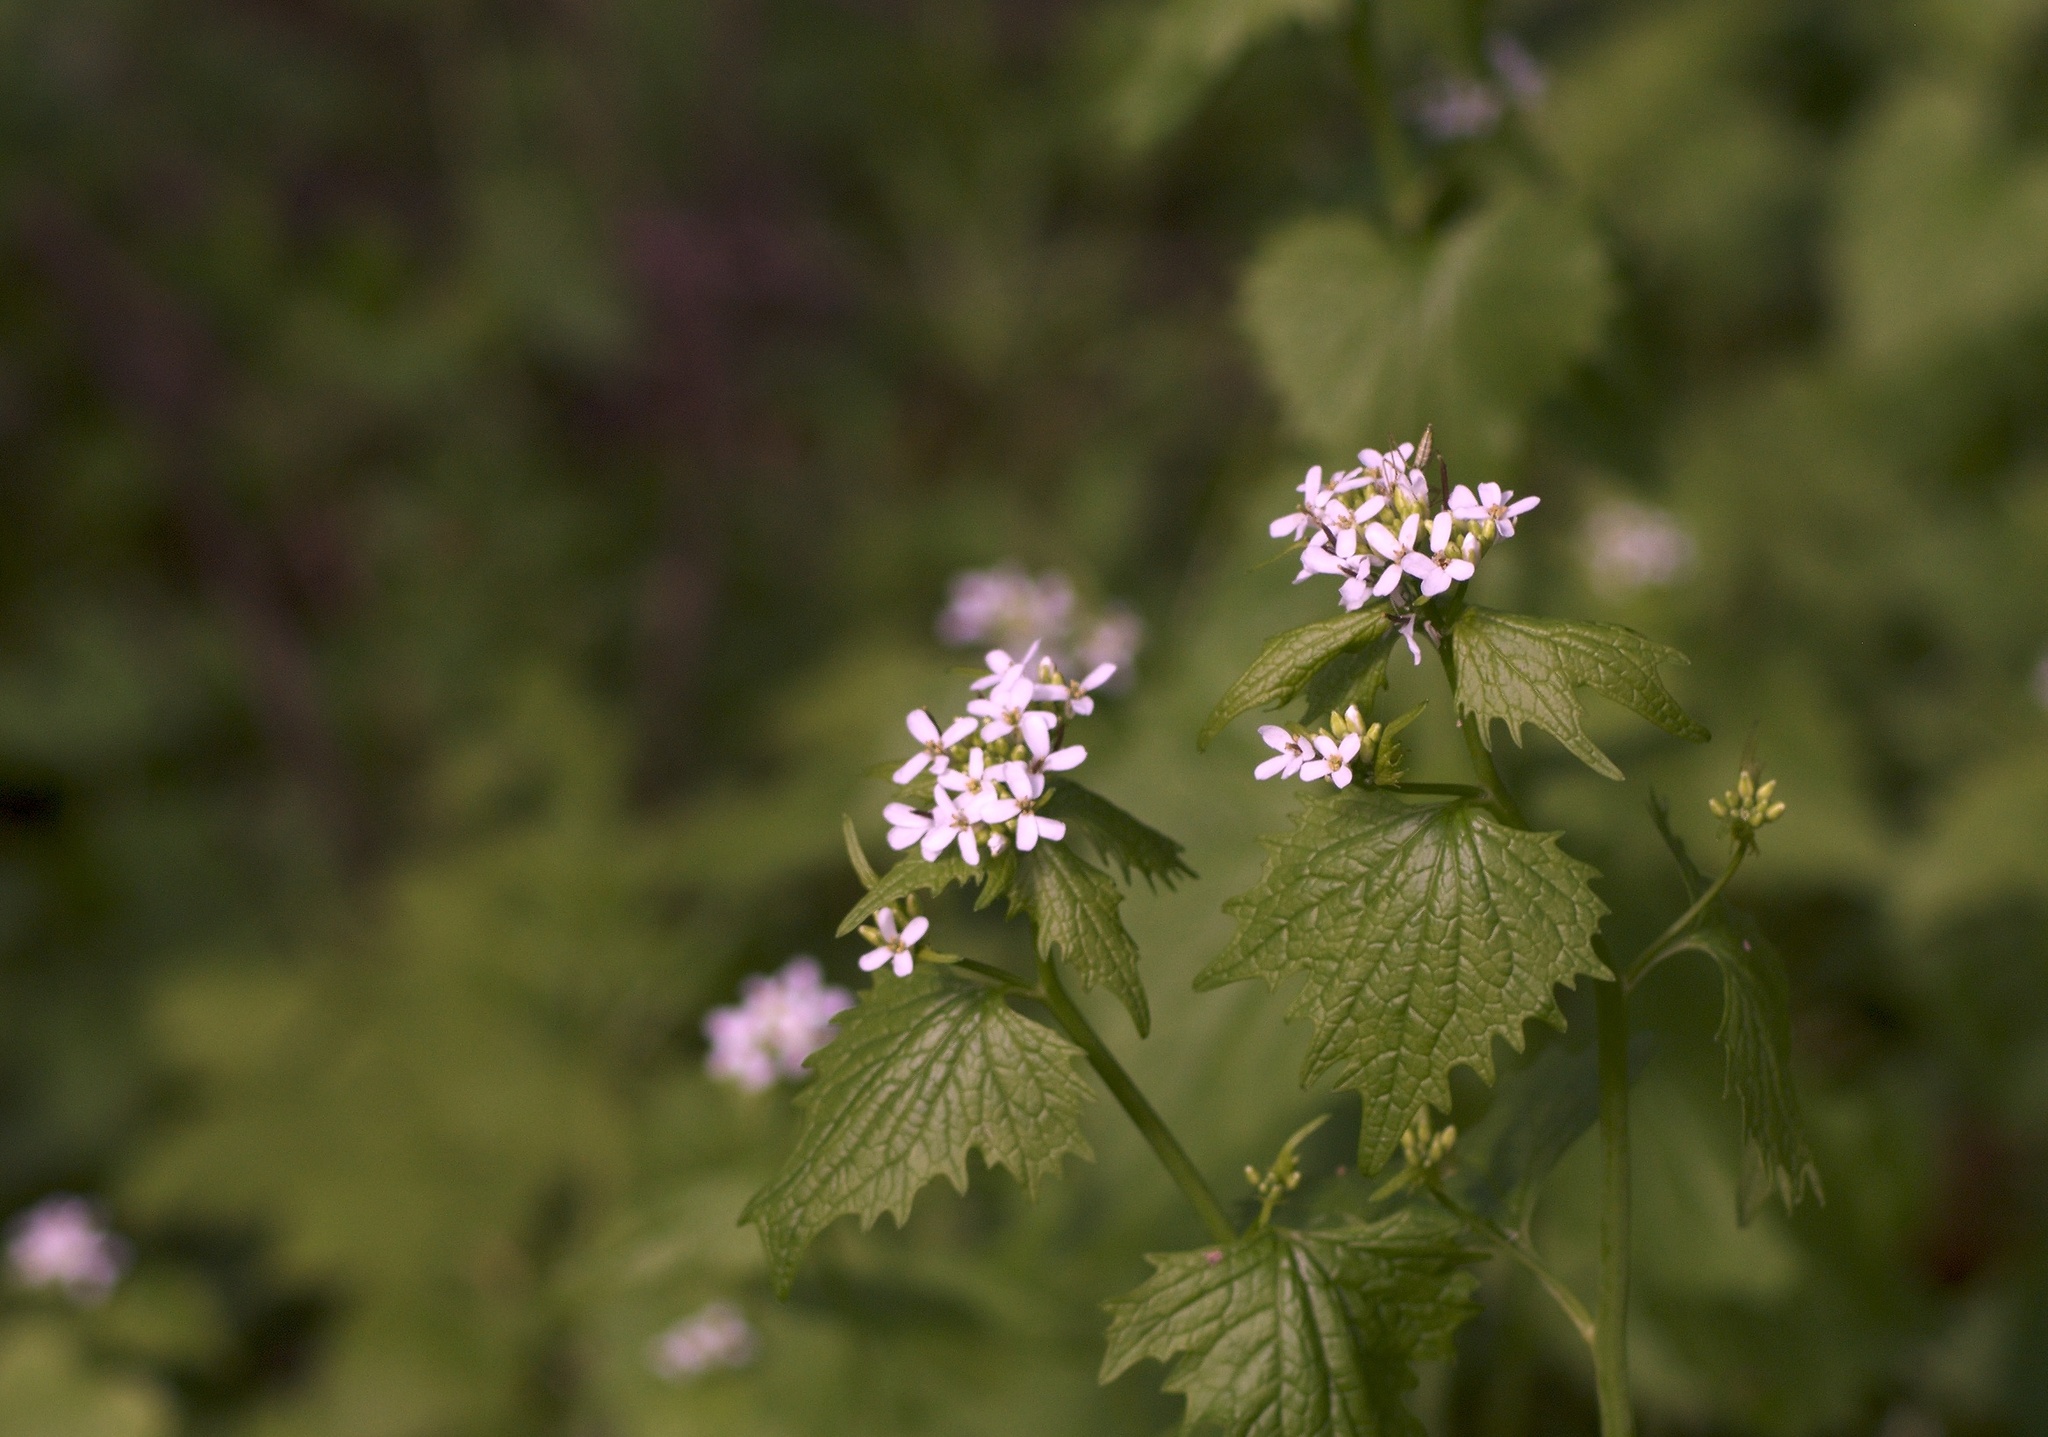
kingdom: Plantae
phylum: Tracheophyta
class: Magnoliopsida
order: Brassicales
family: Brassicaceae
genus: Alliaria
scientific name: Alliaria petiolata
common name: Garlic mustard
